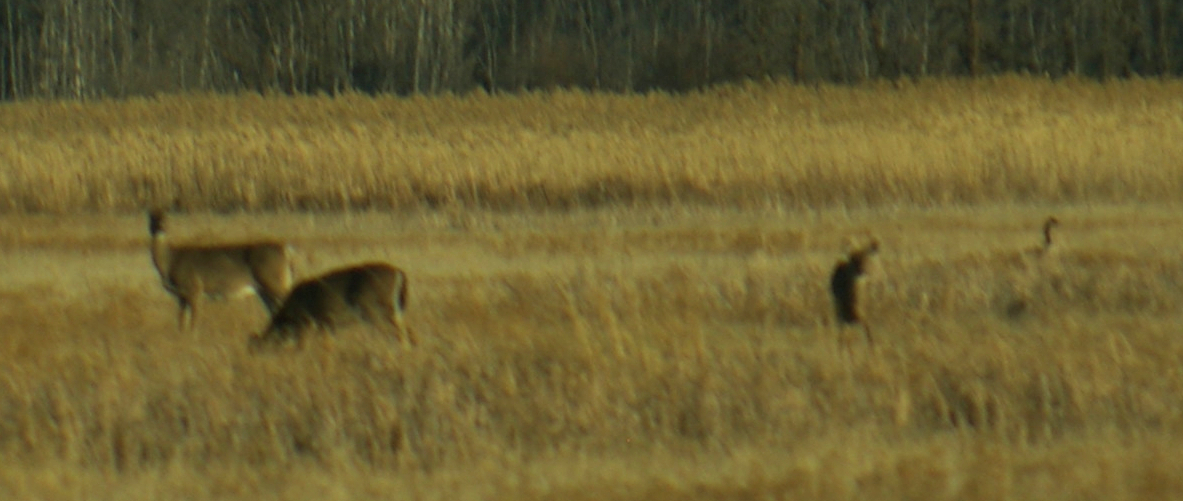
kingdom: Animalia
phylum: Chordata
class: Mammalia
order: Artiodactyla
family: Cervidae
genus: Odocoileus
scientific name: Odocoileus virginianus
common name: White-tailed deer
